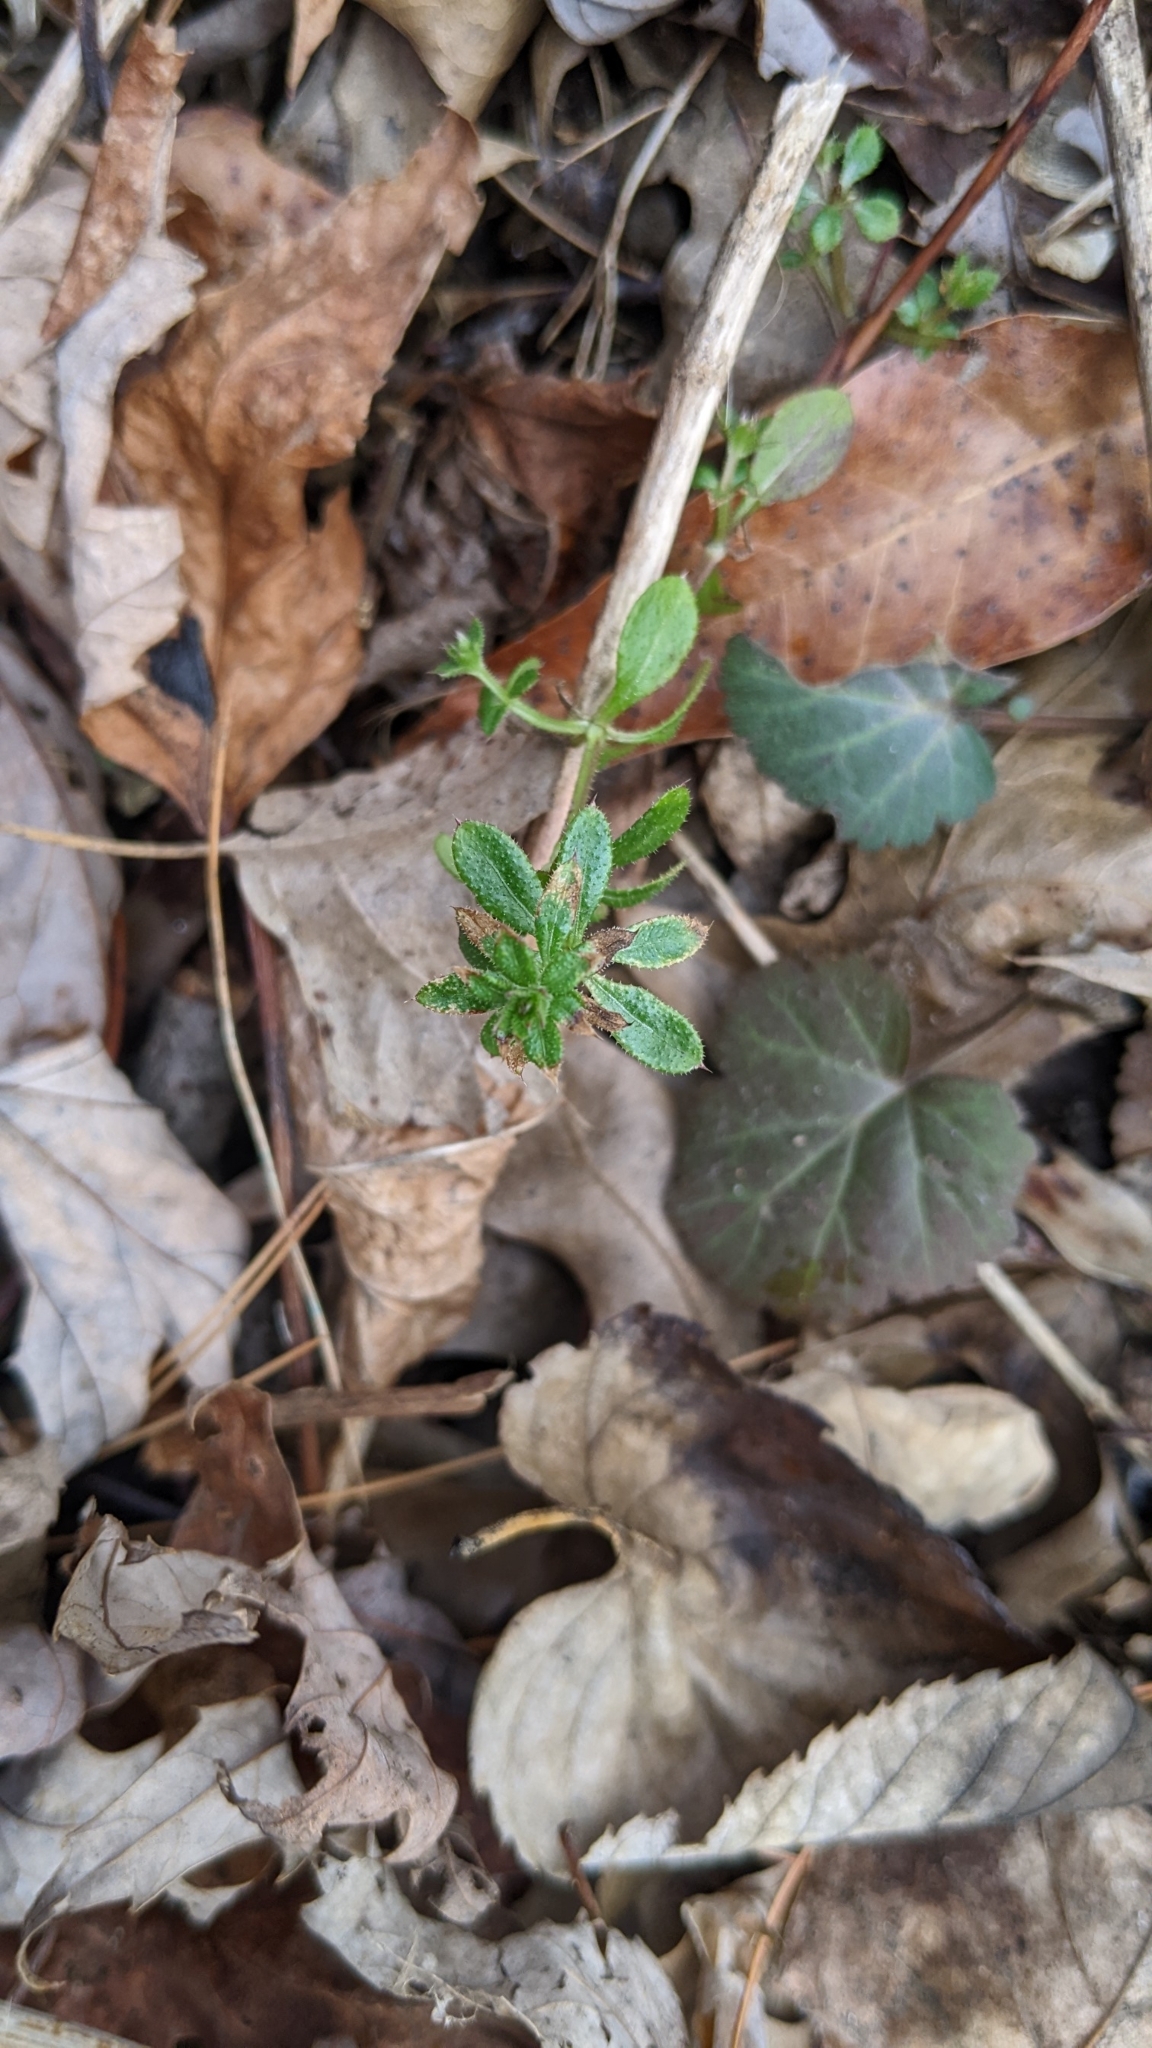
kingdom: Plantae
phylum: Tracheophyta
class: Magnoliopsida
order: Gentianales
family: Rubiaceae
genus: Galium
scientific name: Galium aparine
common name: Cleavers
